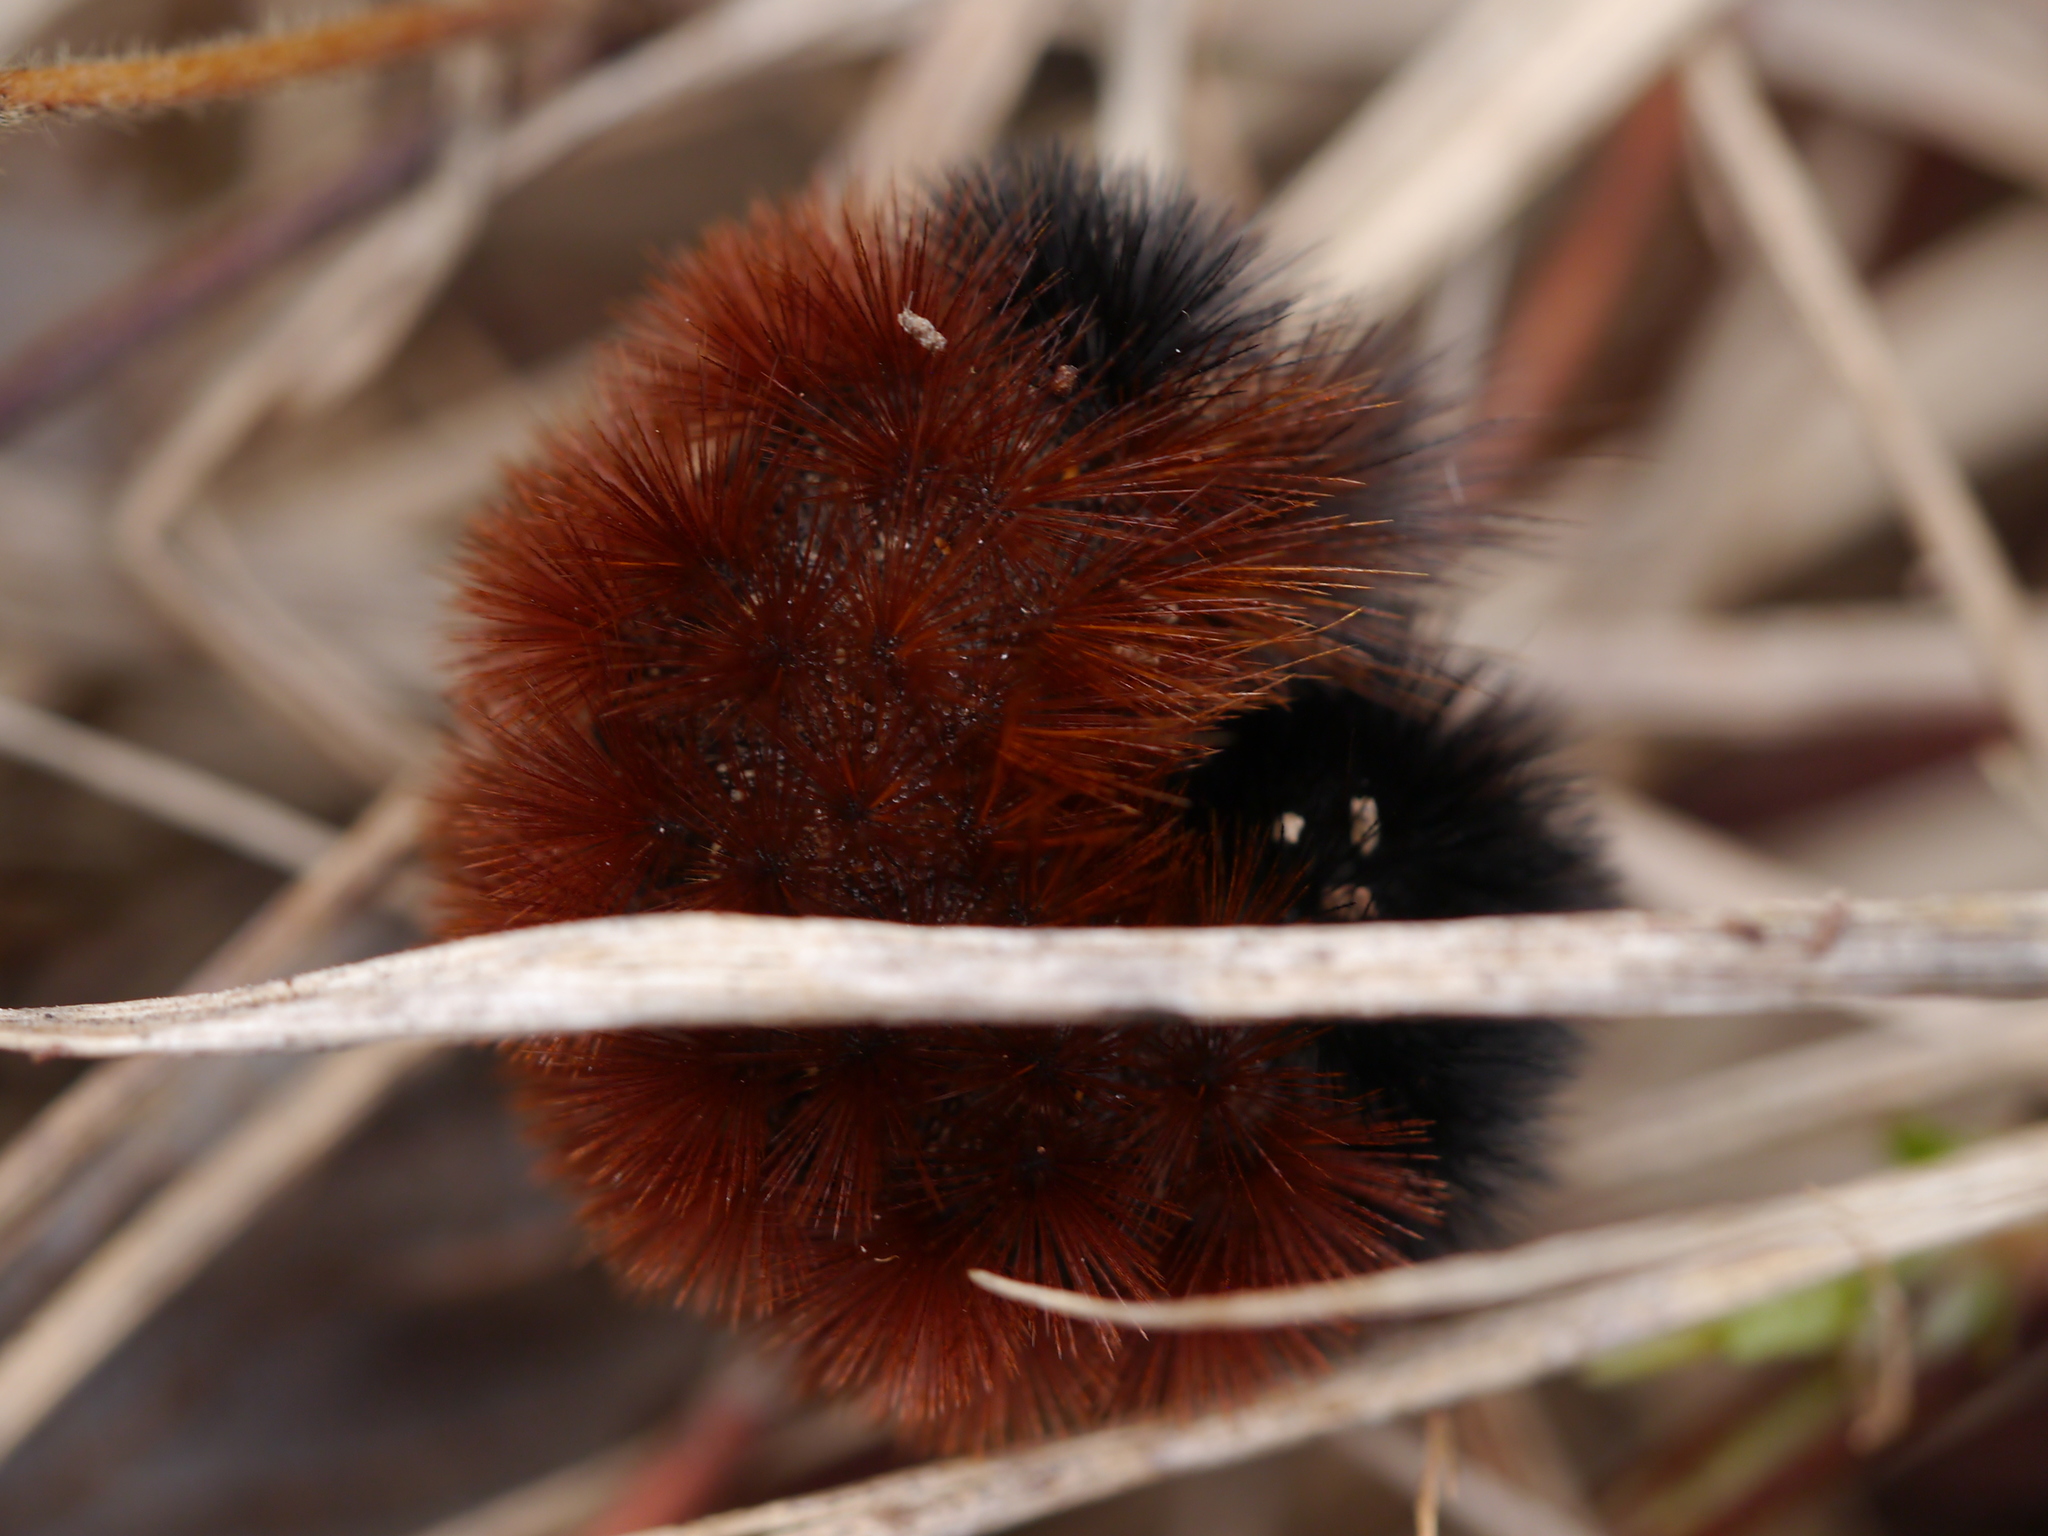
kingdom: Animalia
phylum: Arthropoda
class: Insecta
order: Lepidoptera
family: Erebidae
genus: Pyrrharctia
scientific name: Pyrrharctia isabella
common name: Isabella tiger moth
